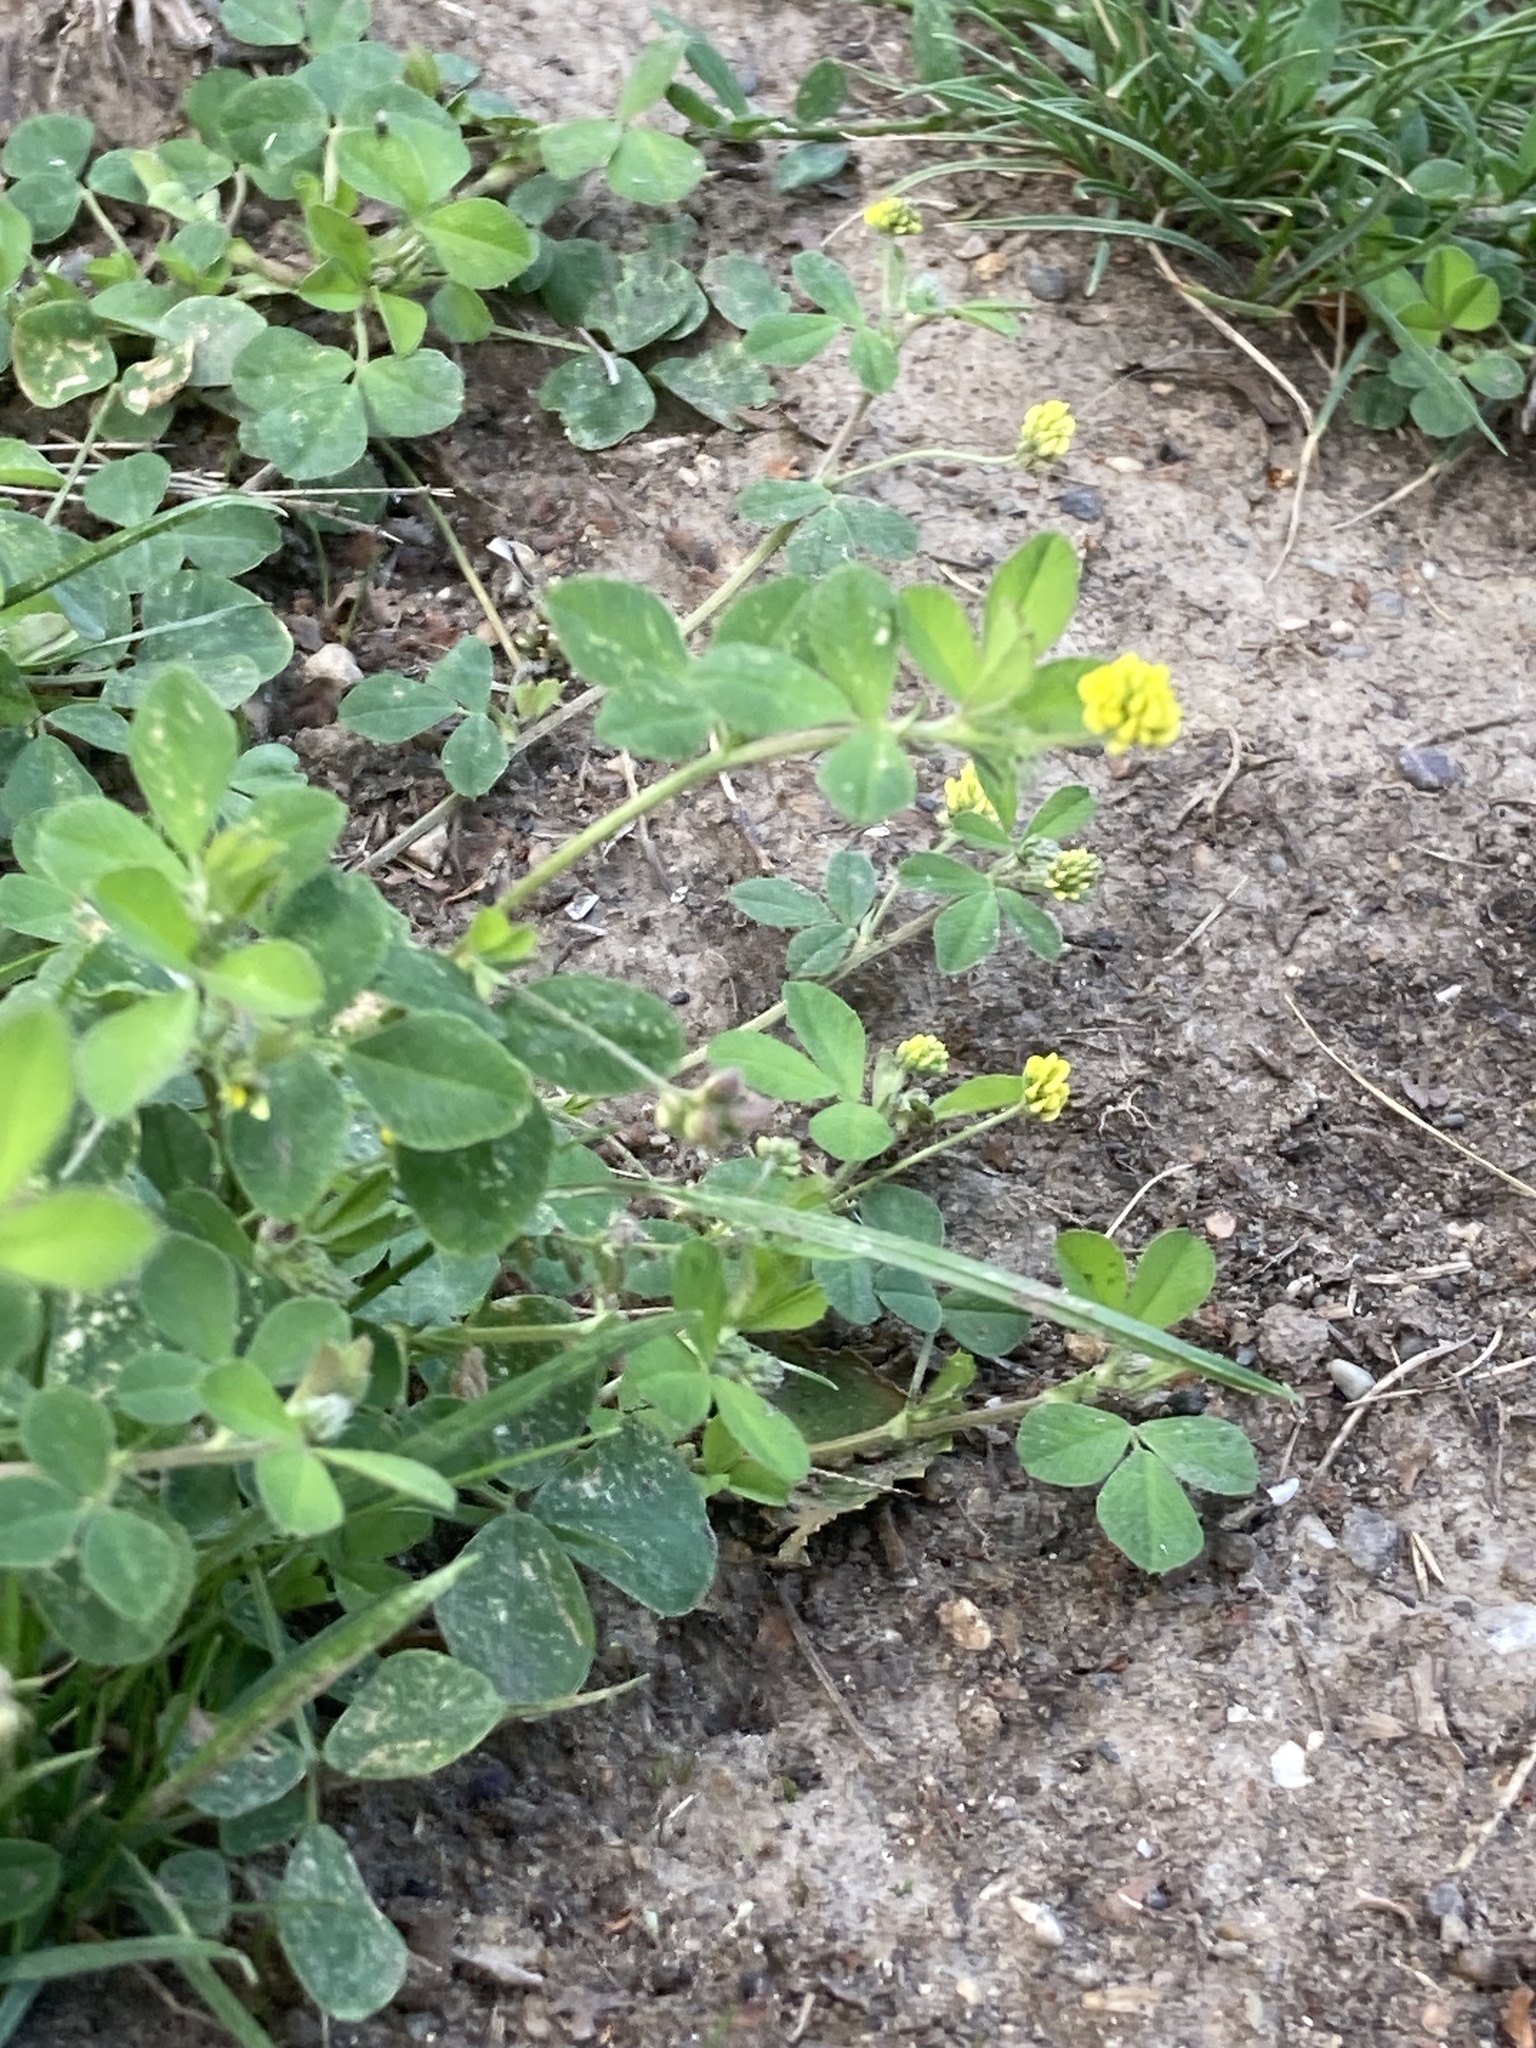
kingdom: Plantae
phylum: Tracheophyta
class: Magnoliopsida
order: Fabales
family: Fabaceae
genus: Medicago
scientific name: Medicago lupulina
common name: Black medick
